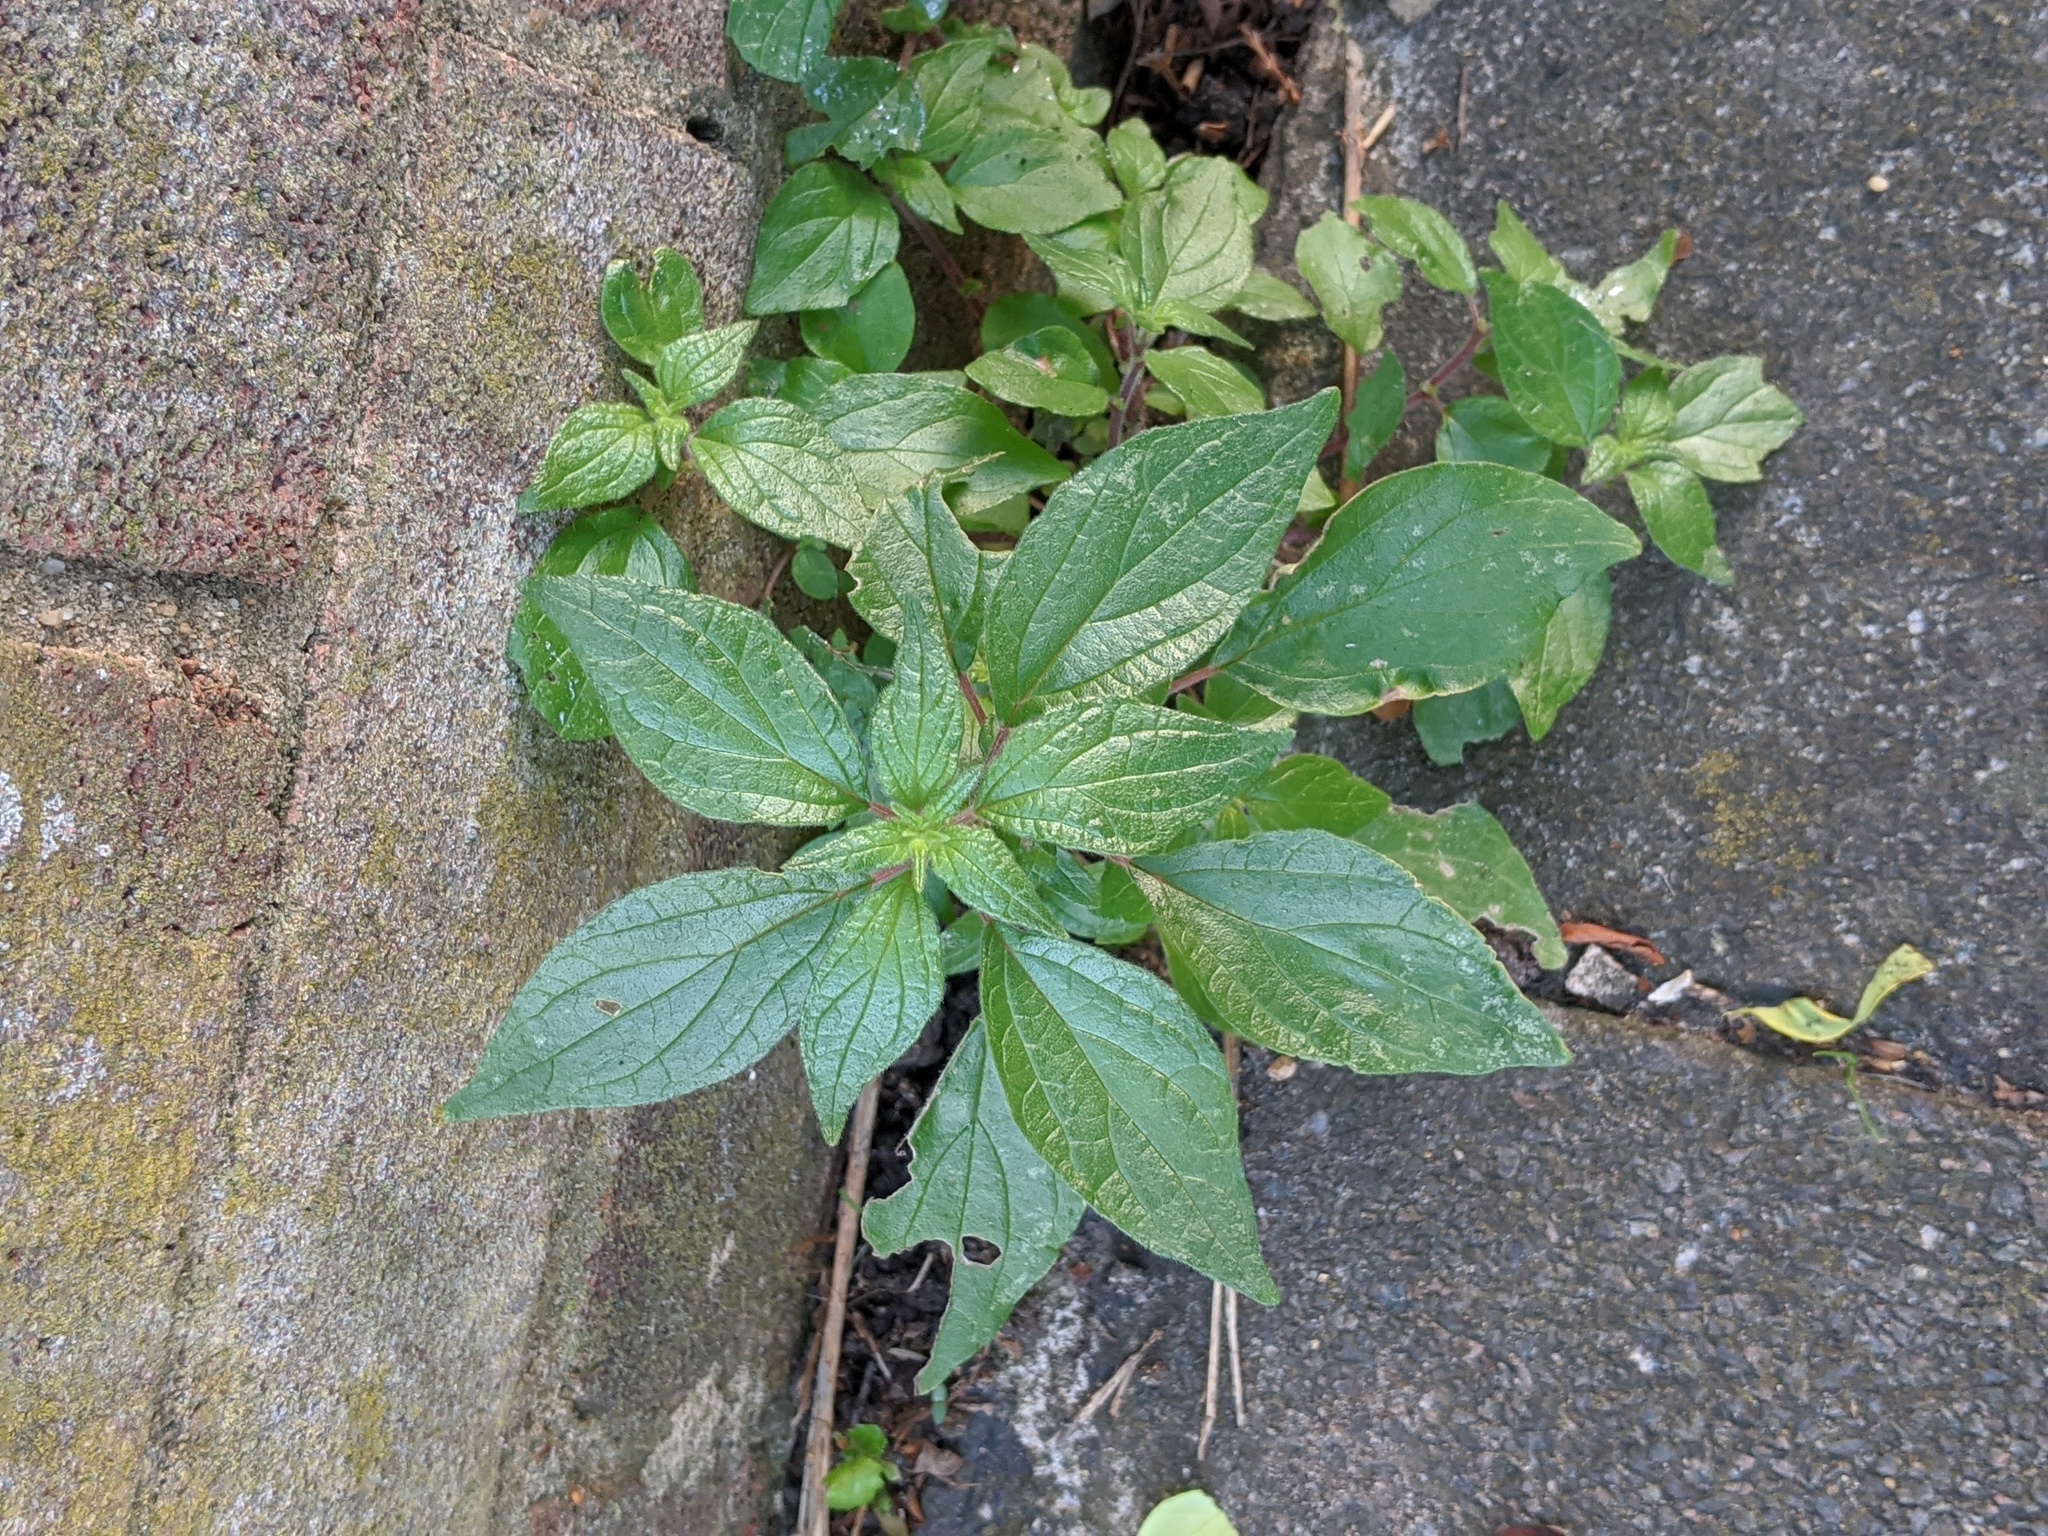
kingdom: Plantae
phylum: Tracheophyta
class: Magnoliopsida
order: Rosales
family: Urticaceae
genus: Parietaria
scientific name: Parietaria judaica
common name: Pellitory-of-the-wall
